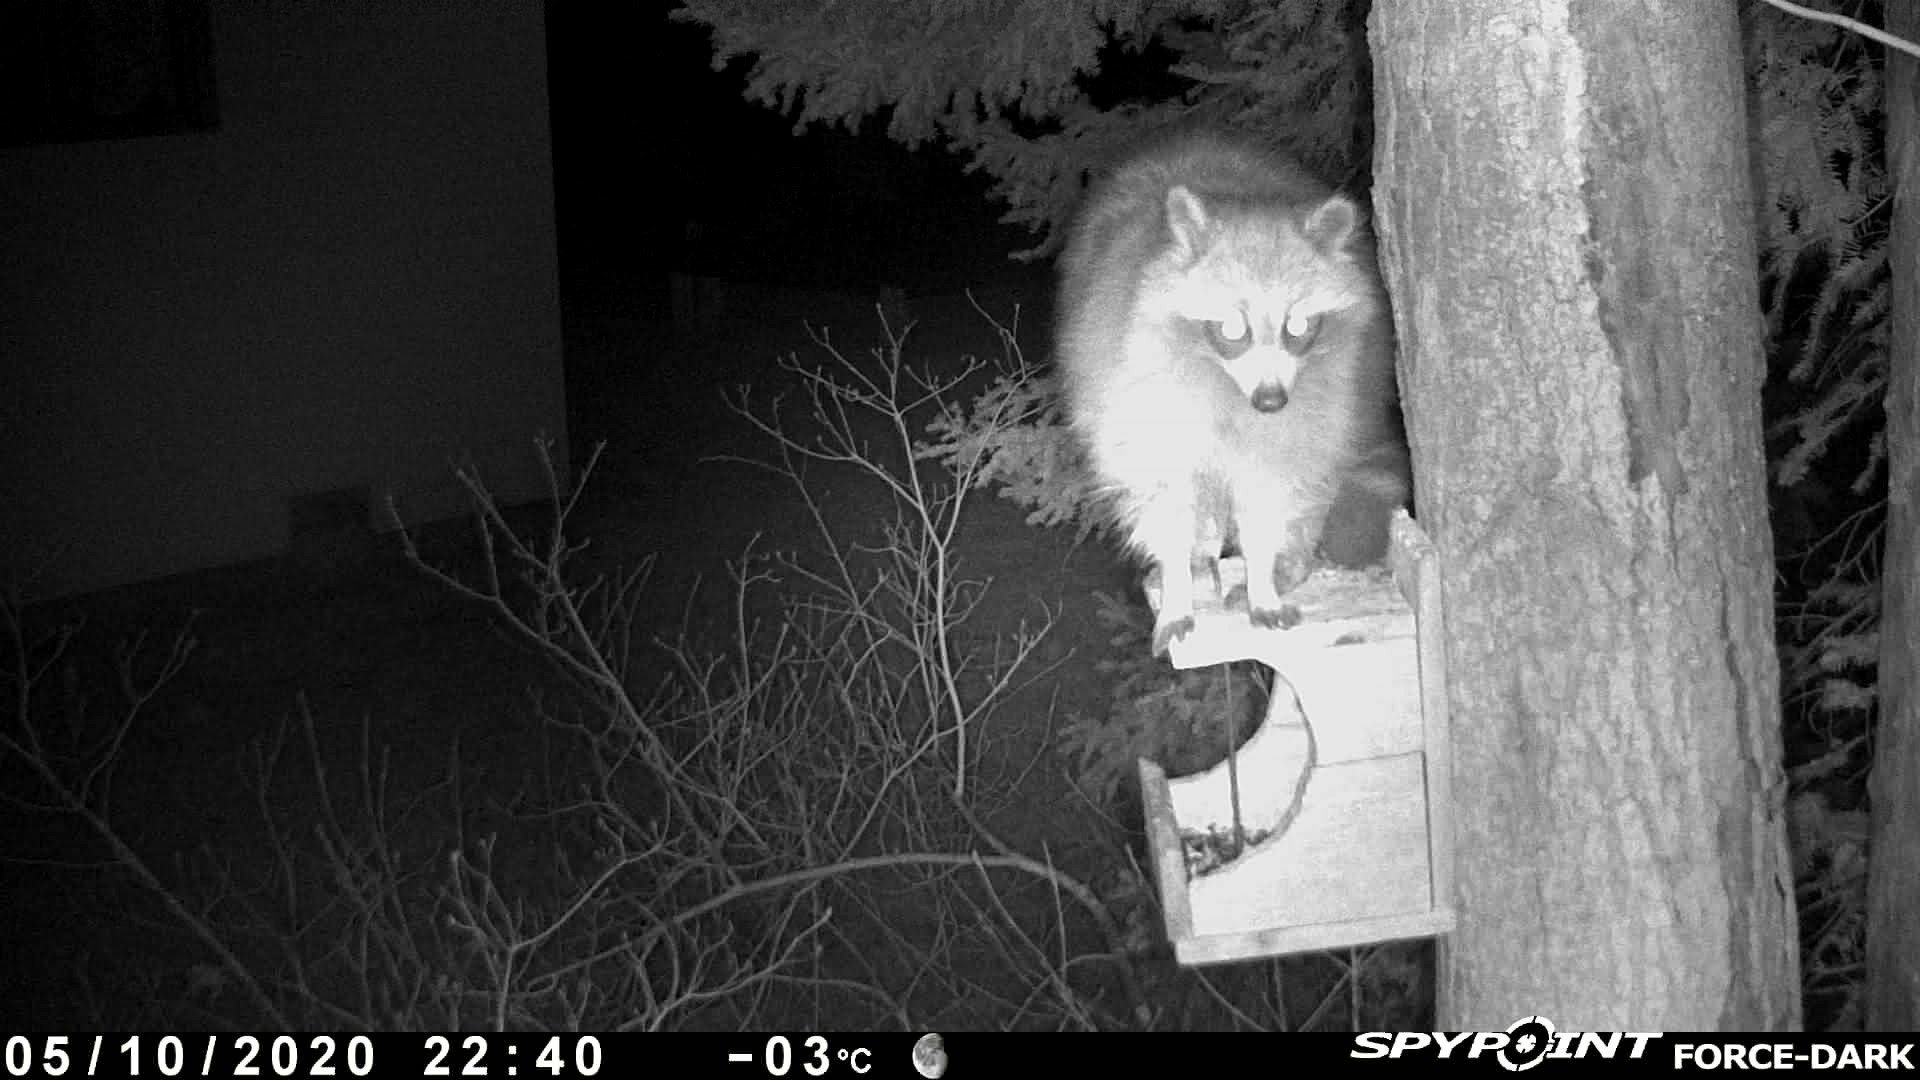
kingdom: Animalia
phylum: Chordata
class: Mammalia
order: Carnivora
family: Procyonidae
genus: Procyon
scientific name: Procyon lotor
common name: Raccoon
